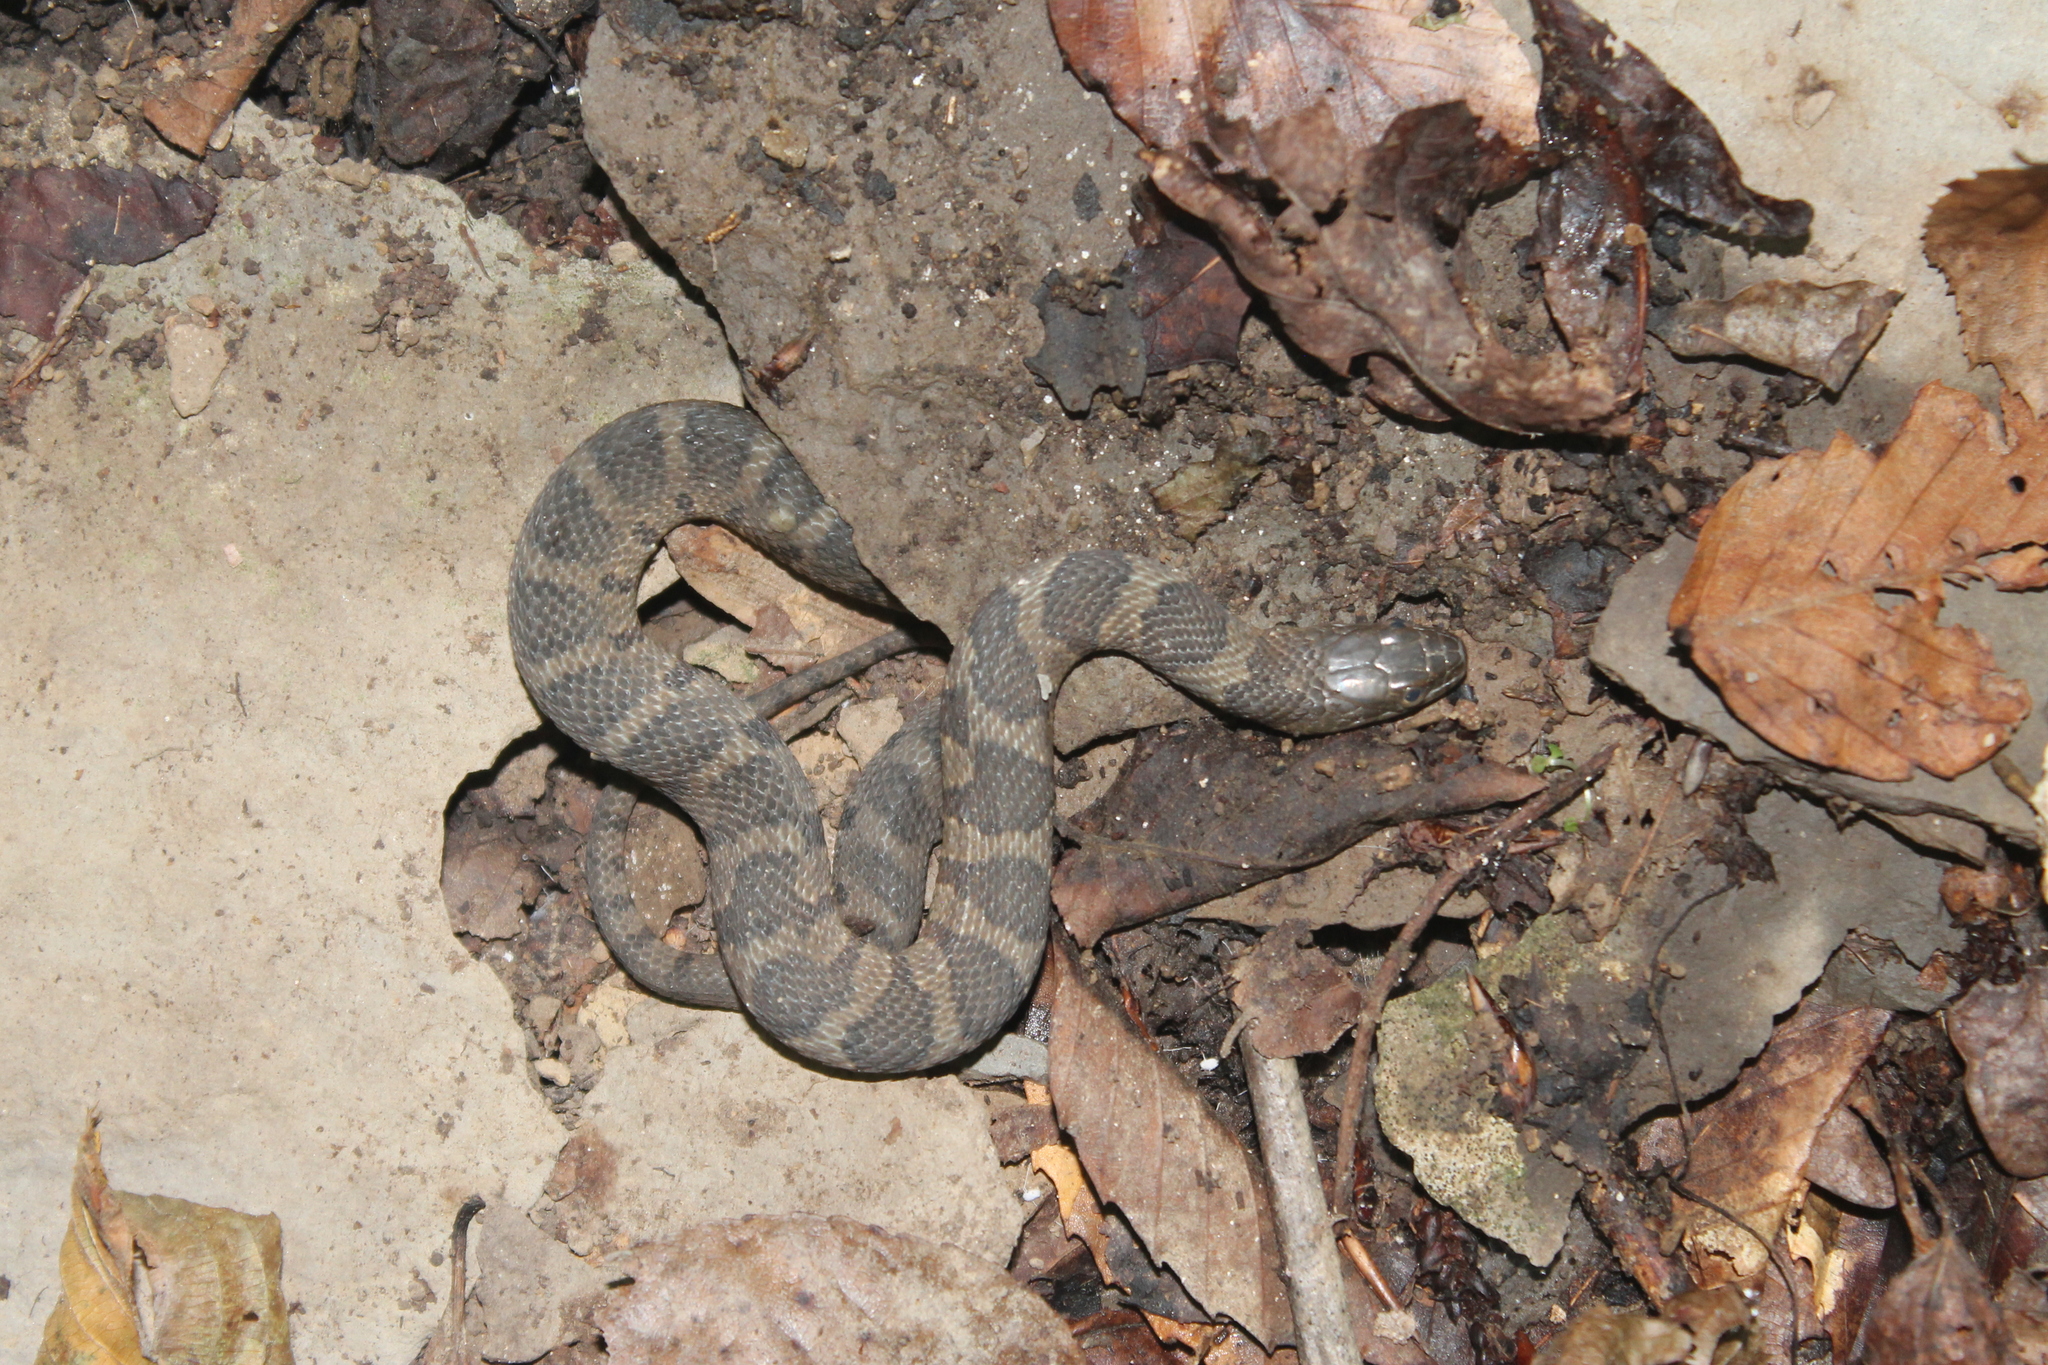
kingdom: Animalia
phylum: Chordata
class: Squamata
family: Colubridae
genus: Nerodia
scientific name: Nerodia sipedon
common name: Northern water snake
